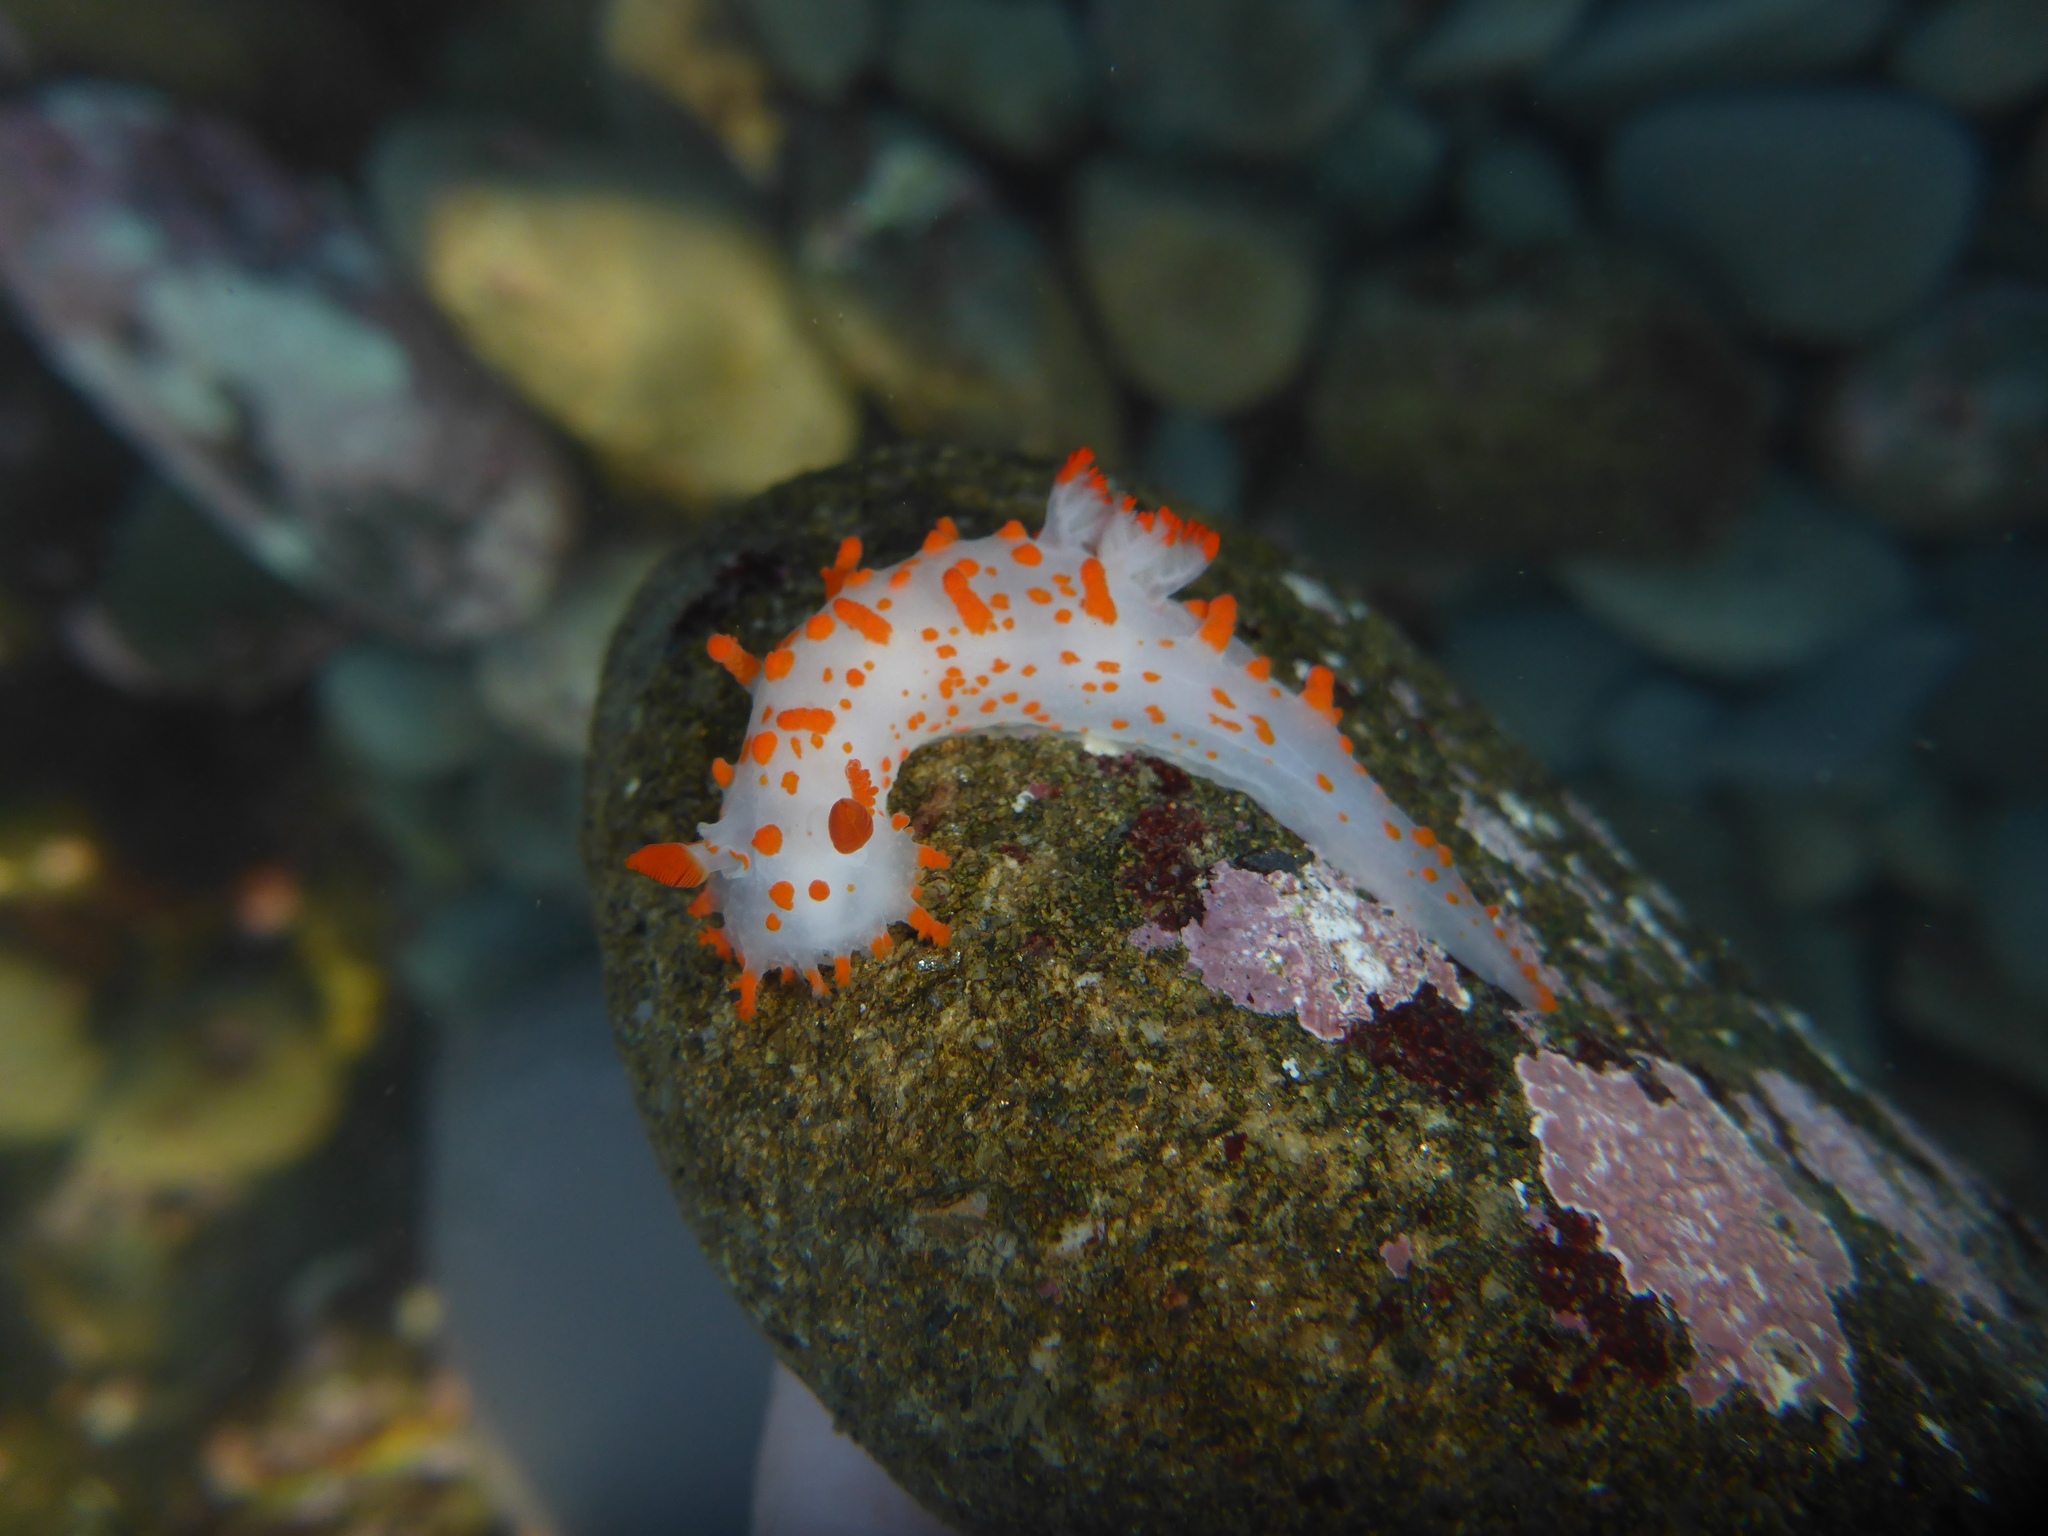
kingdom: Animalia
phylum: Mollusca
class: Gastropoda
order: Nudibranchia
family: Polyceridae
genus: Triopha
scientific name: Triopha catalinae
